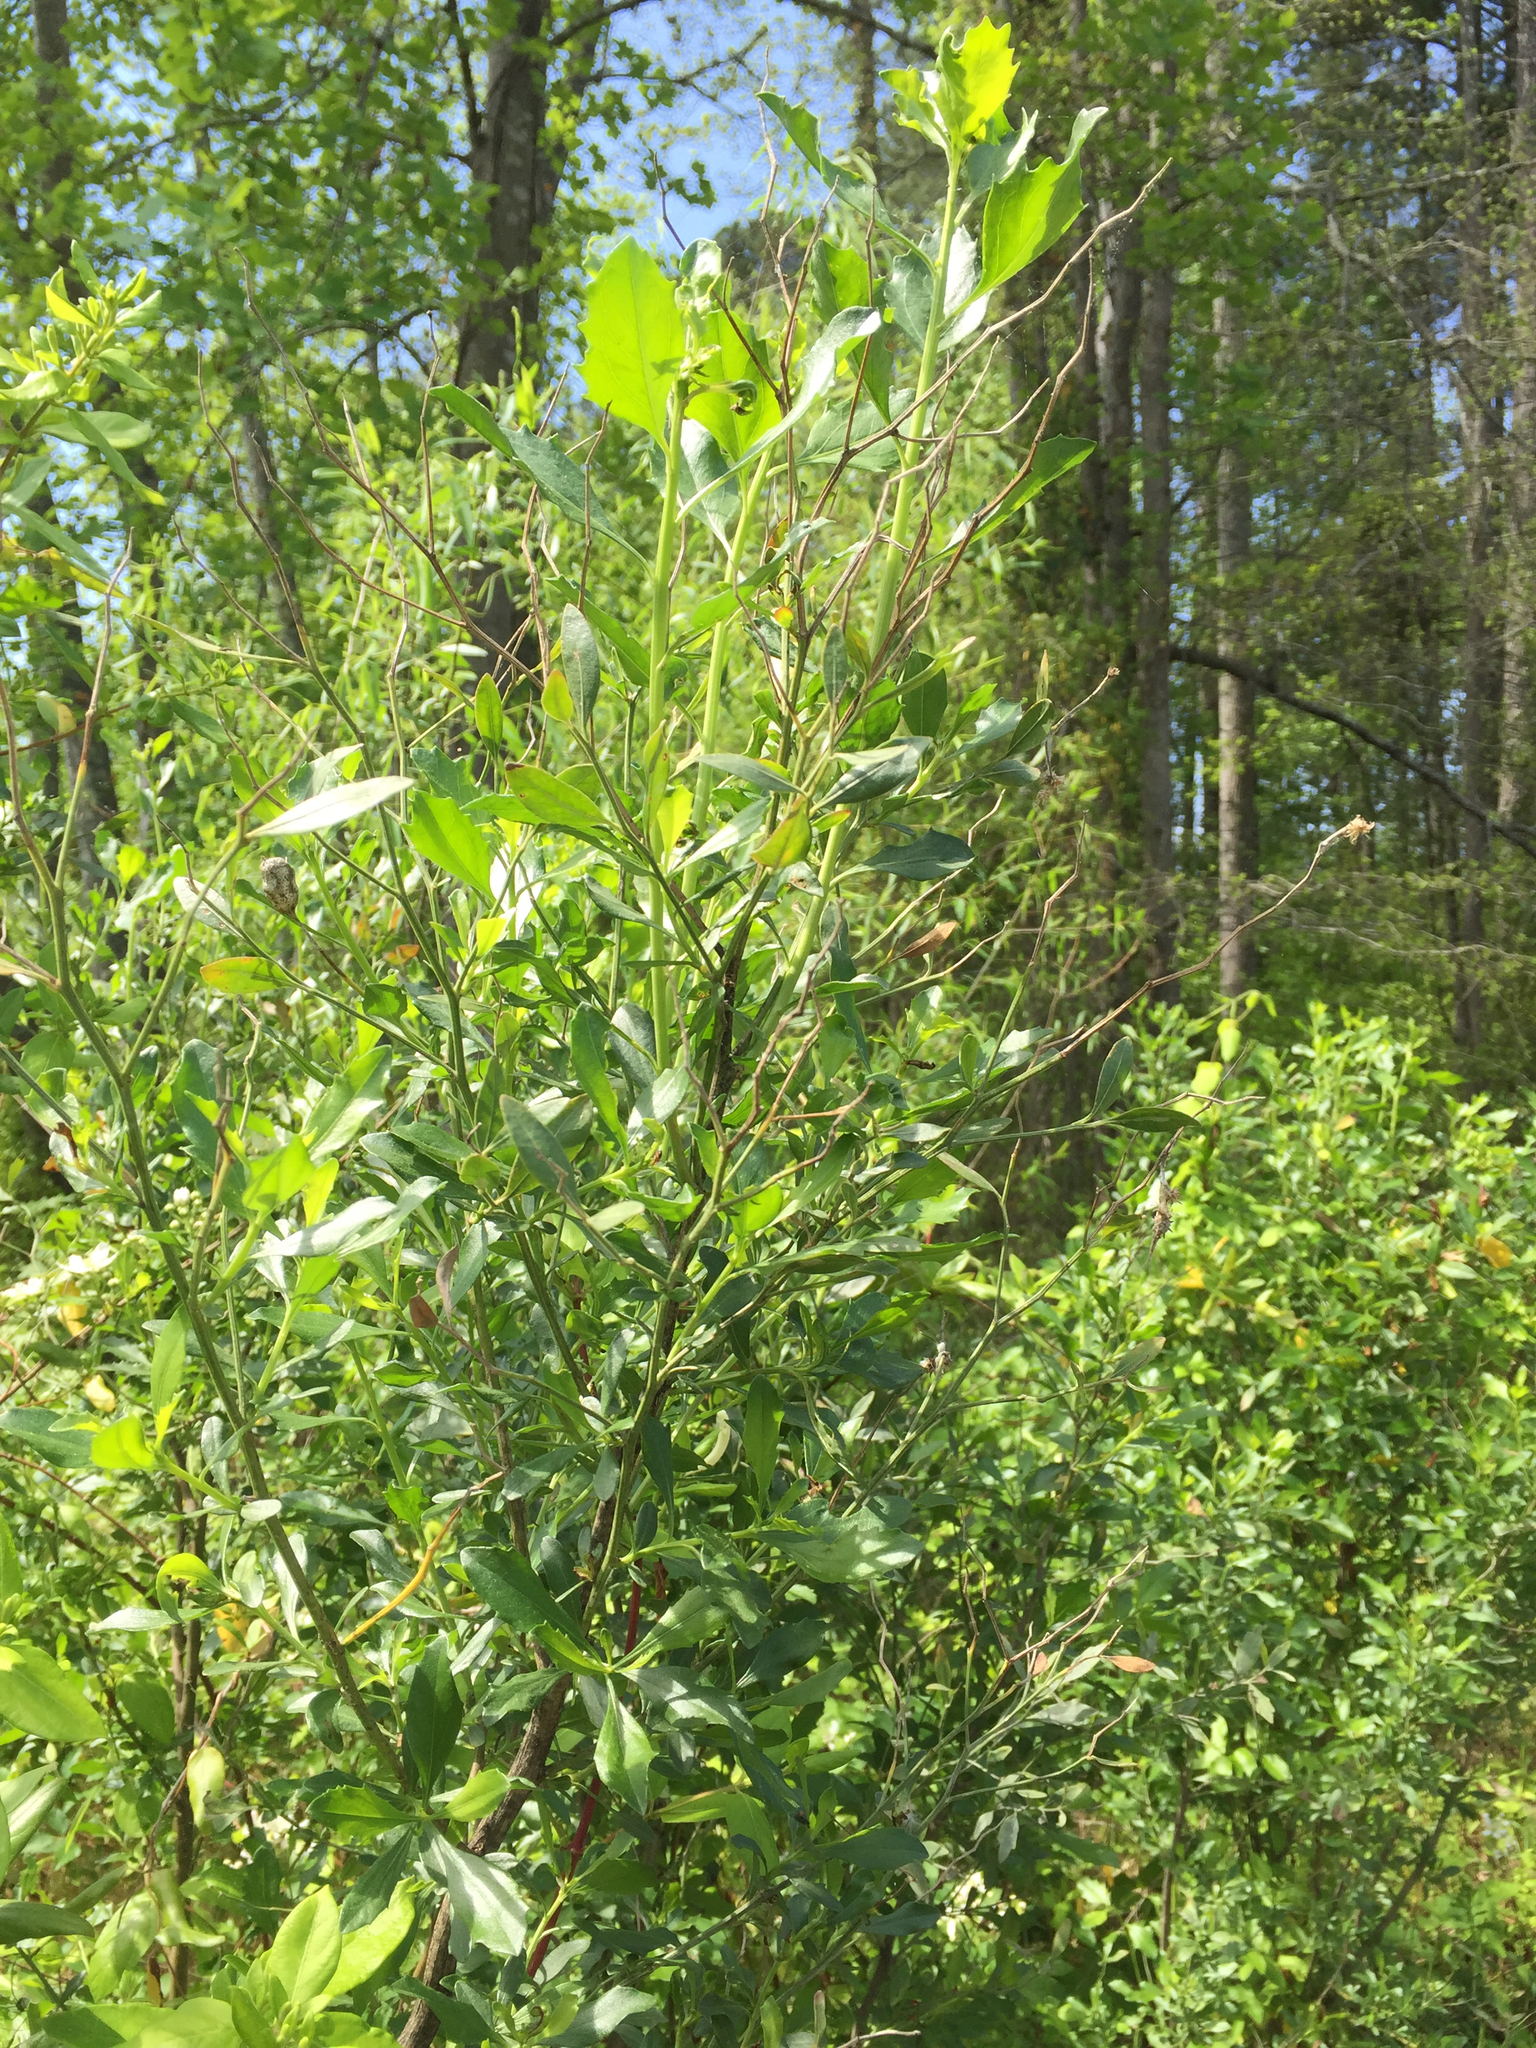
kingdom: Plantae
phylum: Tracheophyta
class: Magnoliopsida
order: Asterales
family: Asteraceae
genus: Baccharis
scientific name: Baccharis halimifolia
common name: Eastern baccharis
